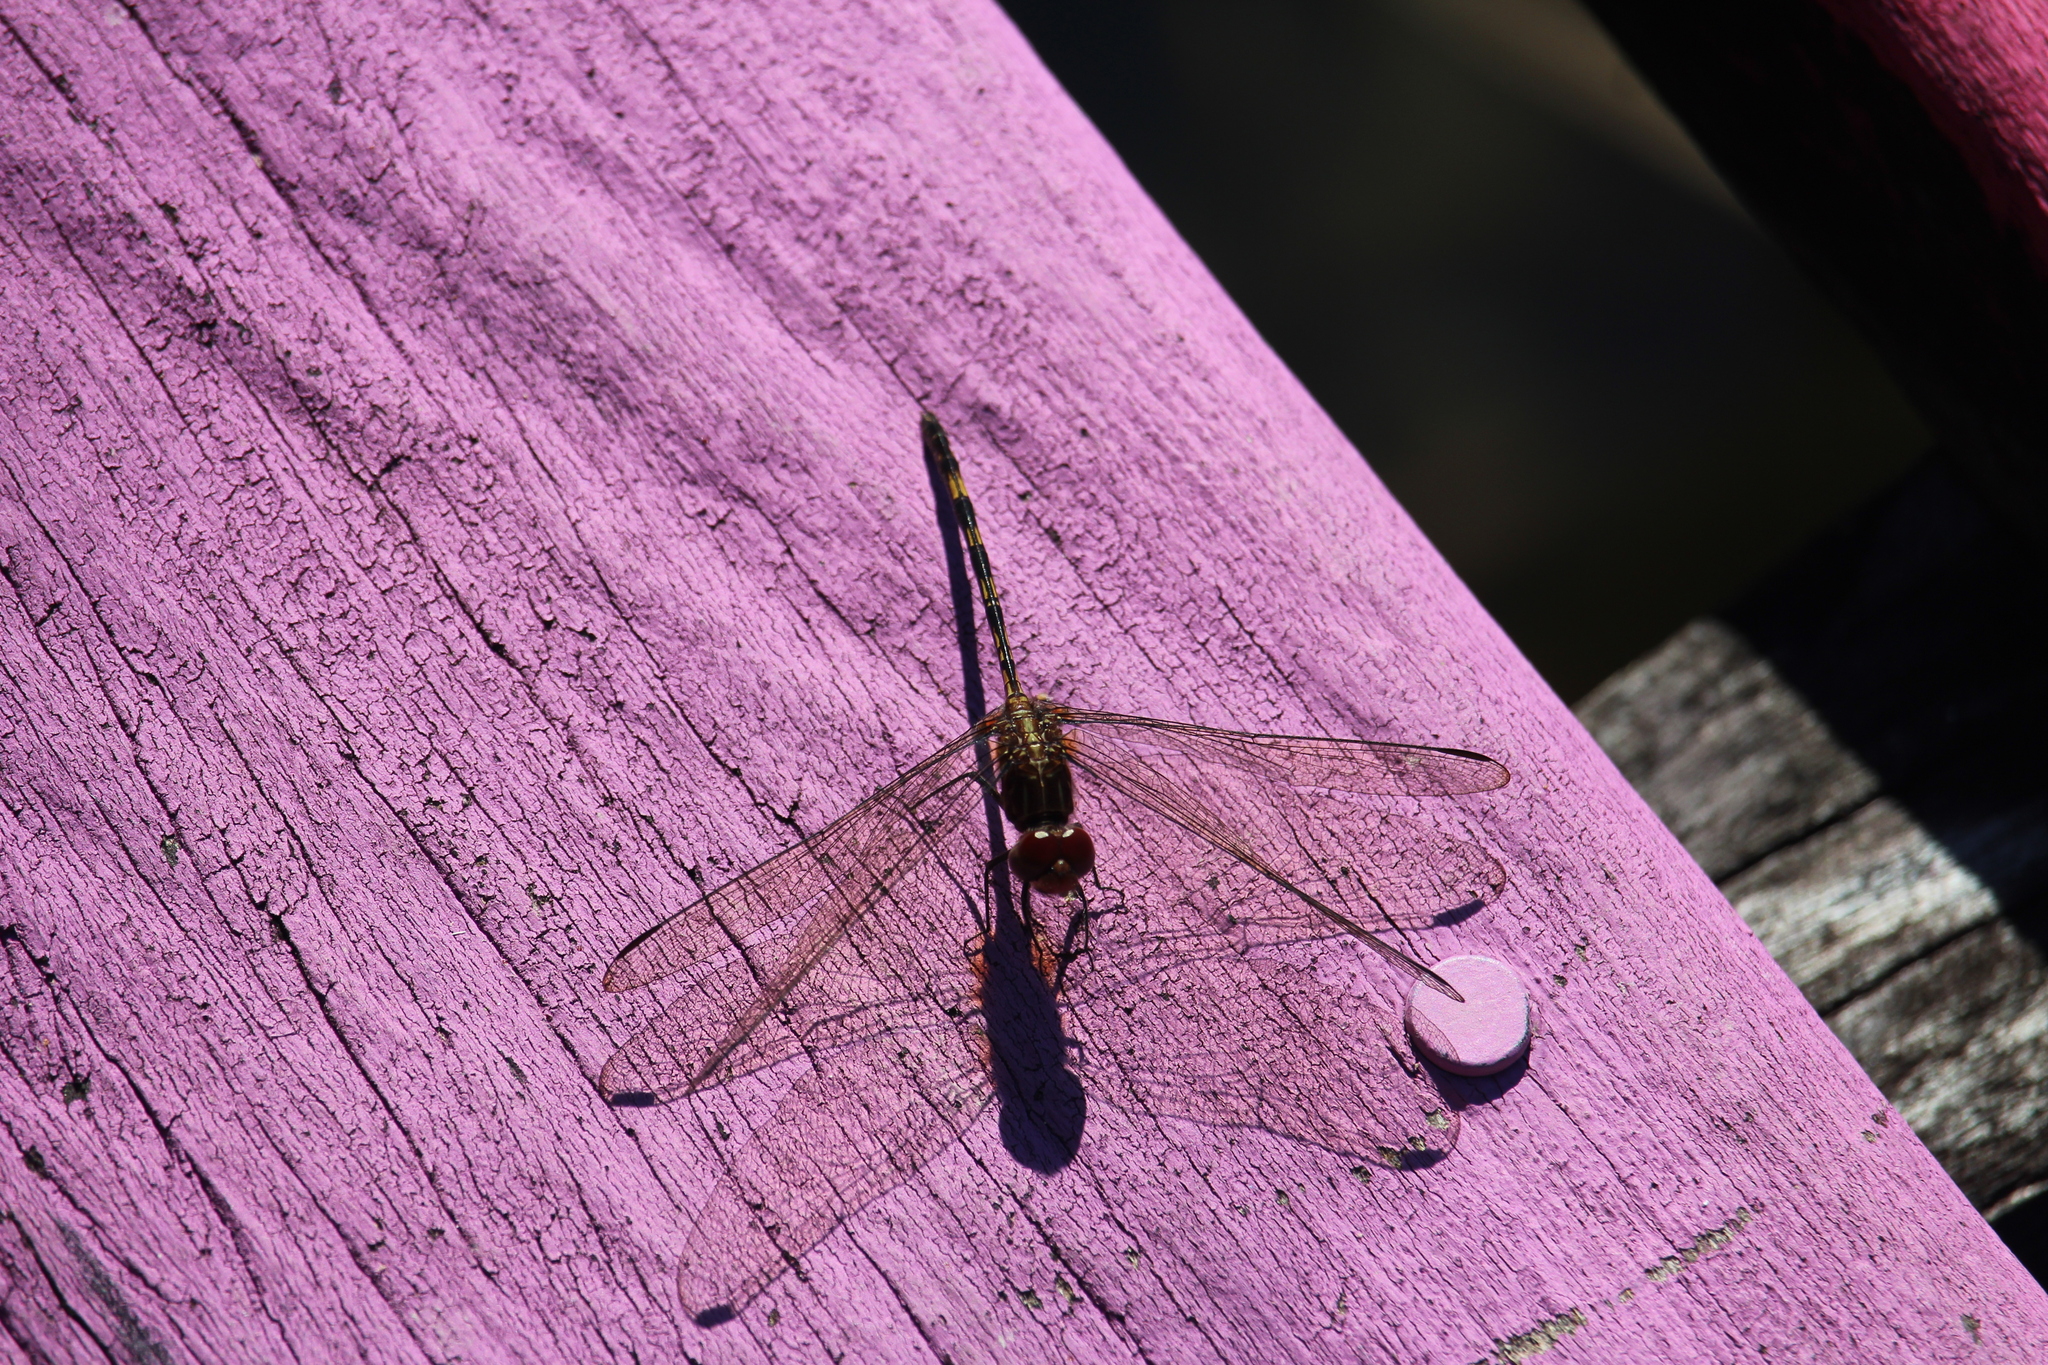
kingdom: Animalia
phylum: Arthropoda
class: Insecta
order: Odonata
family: Libellulidae
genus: Dythemis
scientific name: Dythemis sterilis
